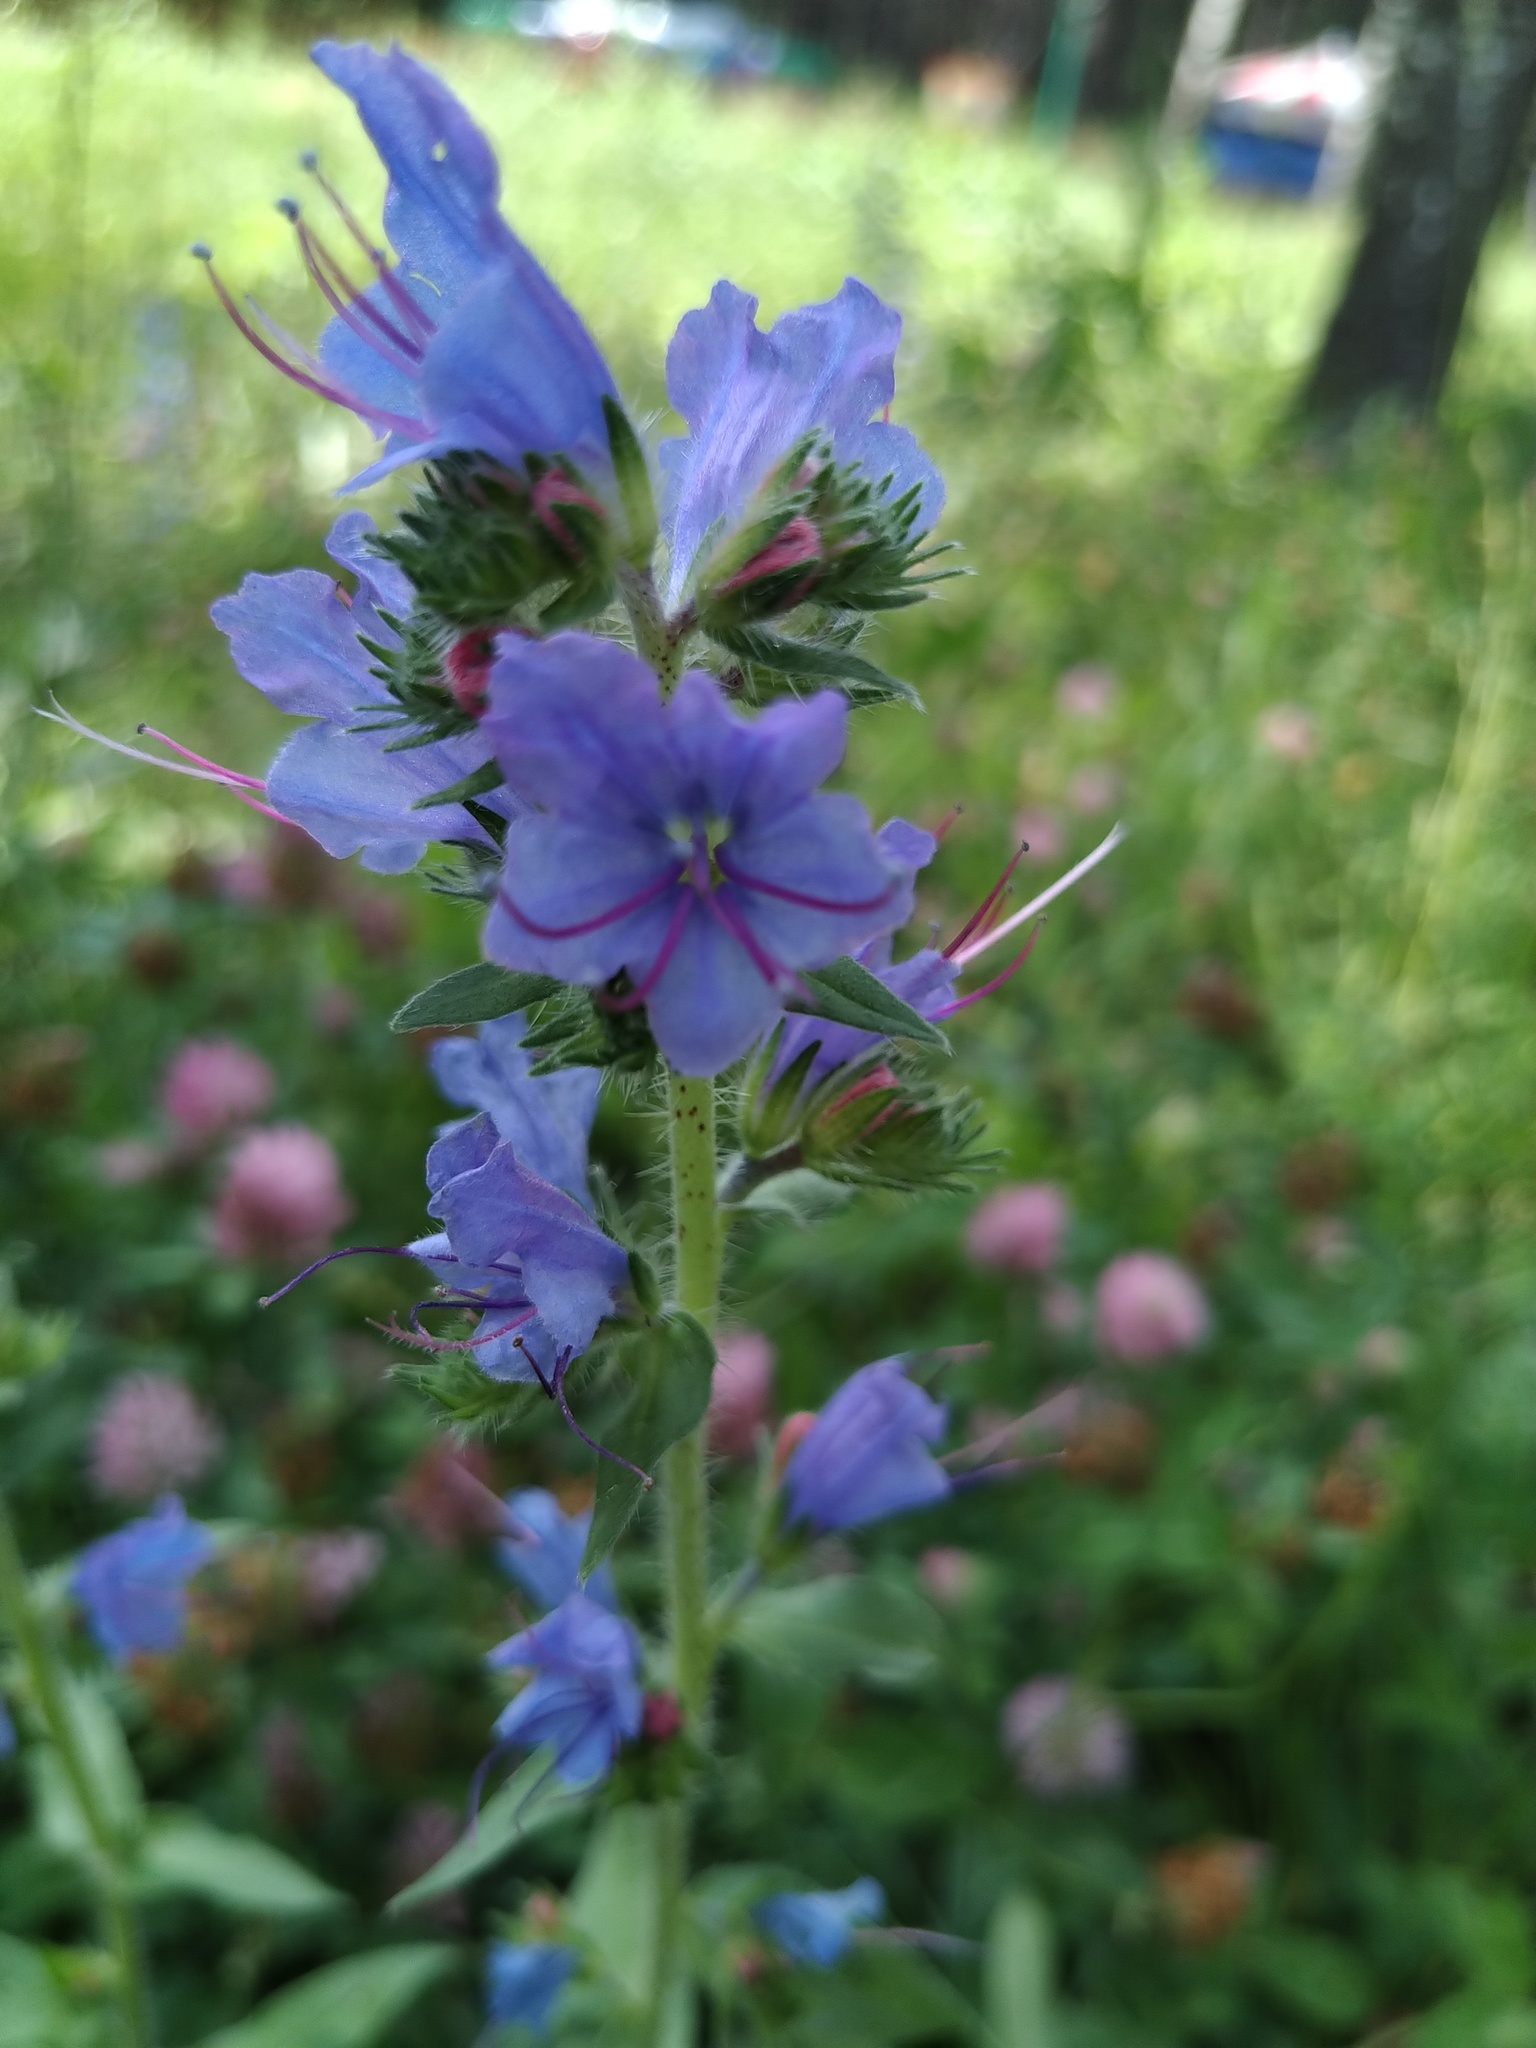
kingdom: Plantae
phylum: Tracheophyta
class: Magnoliopsida
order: Boraginales
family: Boraginaceae
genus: Echium
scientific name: Echium vulgare
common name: Common viper's bugloss
